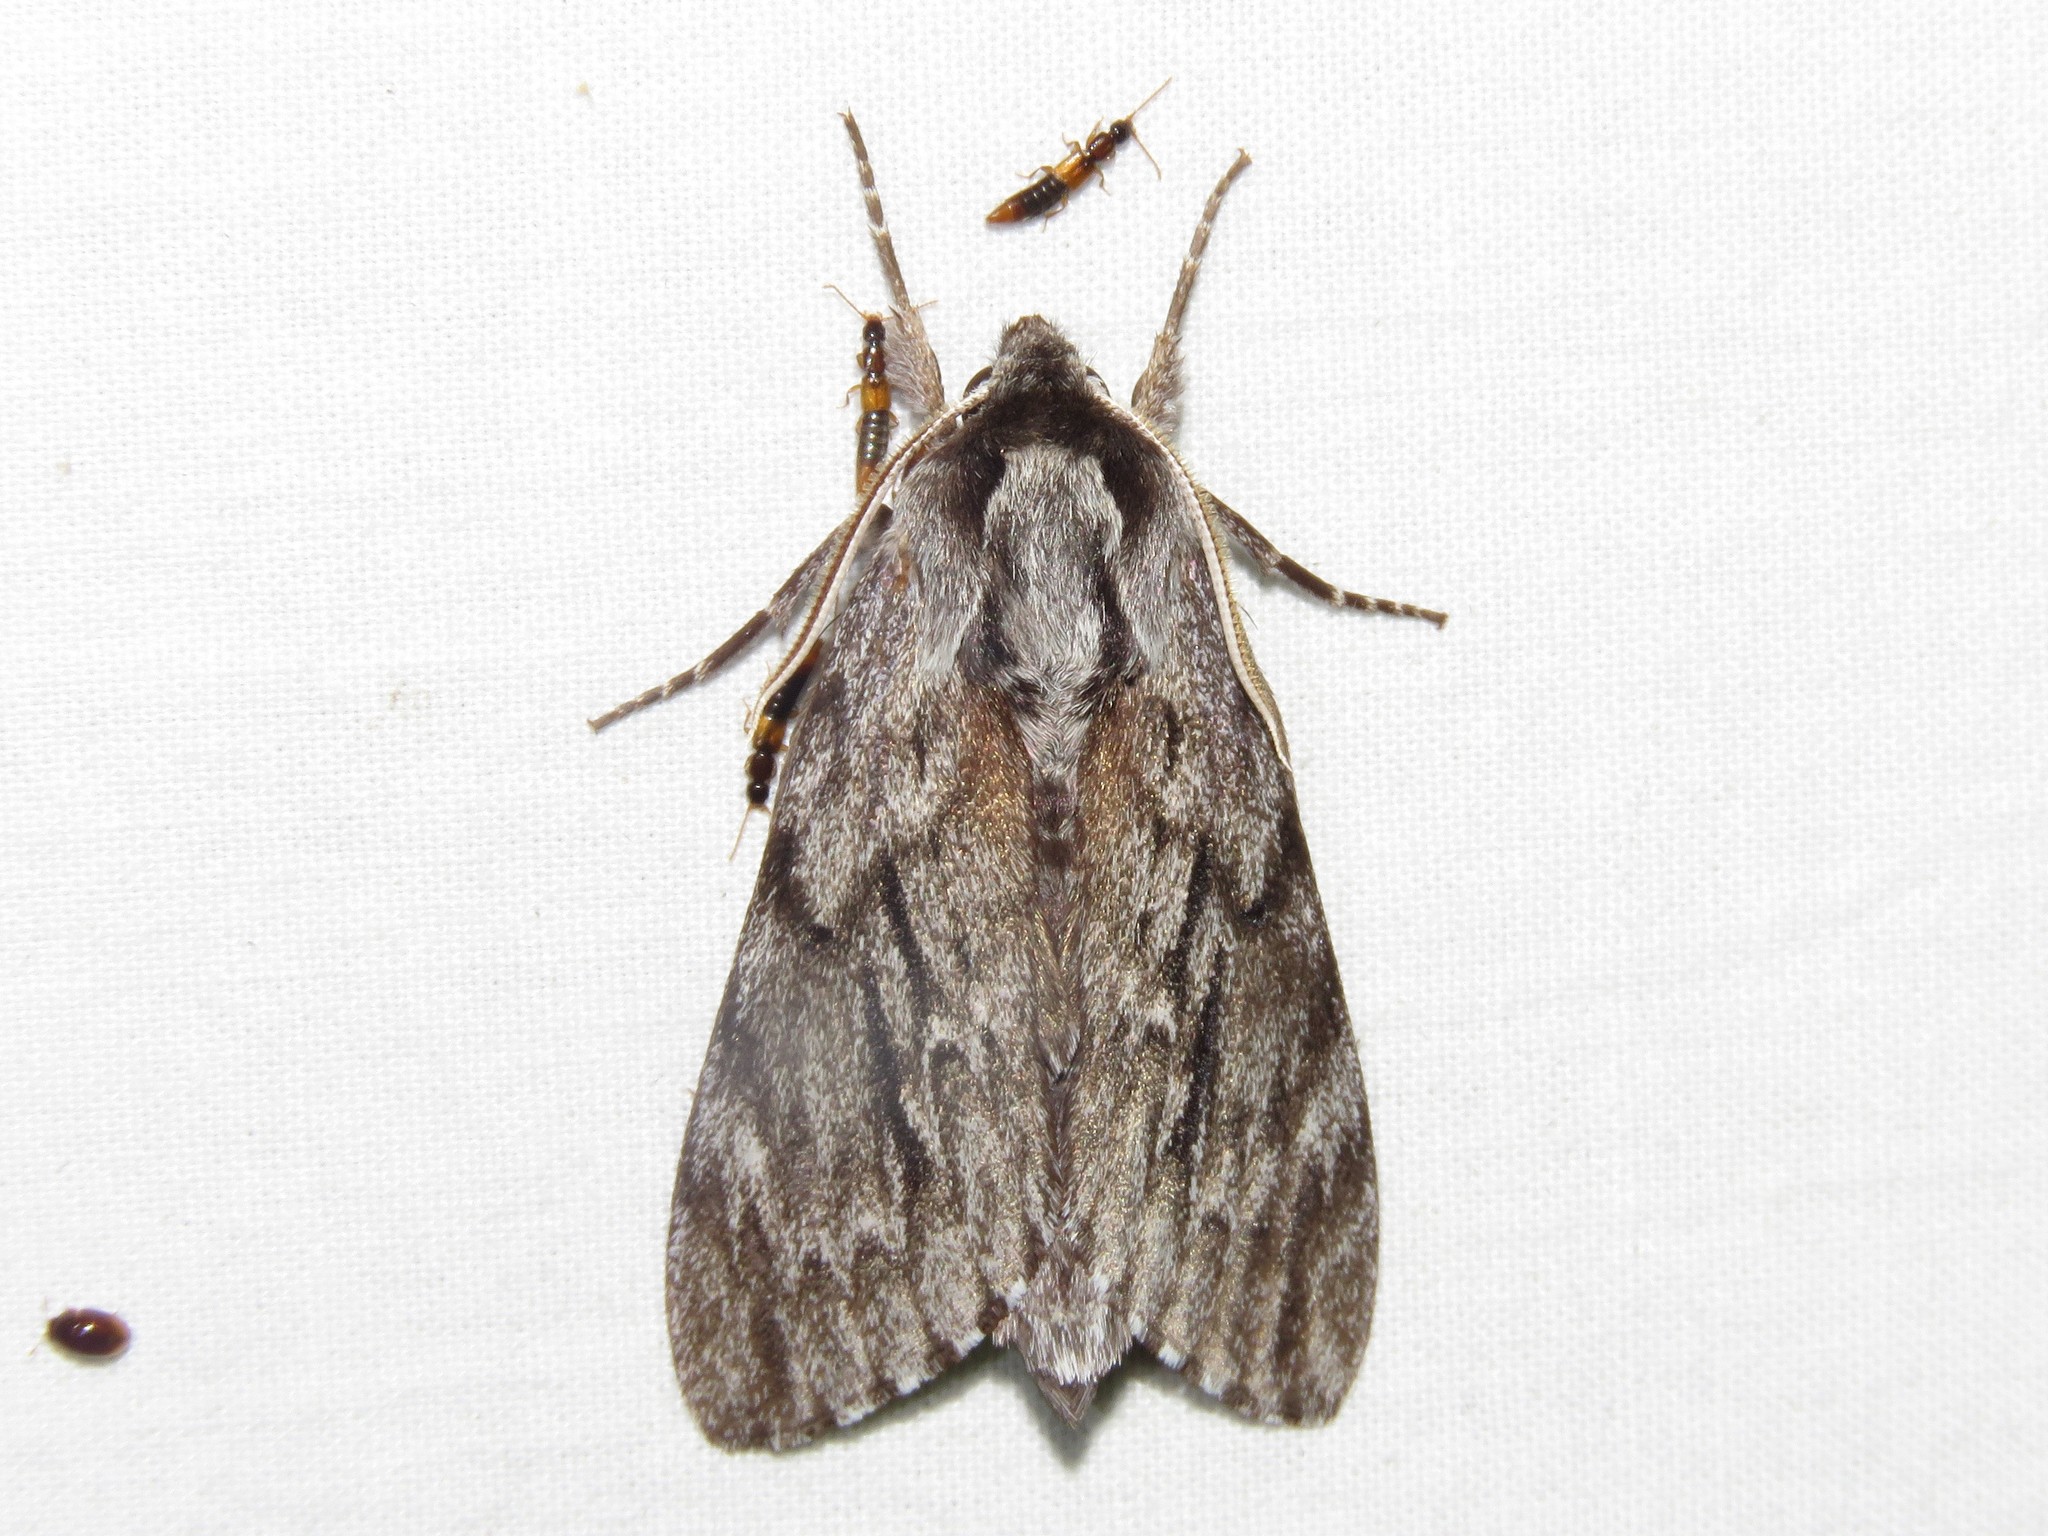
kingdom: Animalia
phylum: Arthropoda
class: Insecta
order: Lepidoptera
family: Sphingidae
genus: Lapara
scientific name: Lapara bombycoides
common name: Northern pine sphinx
